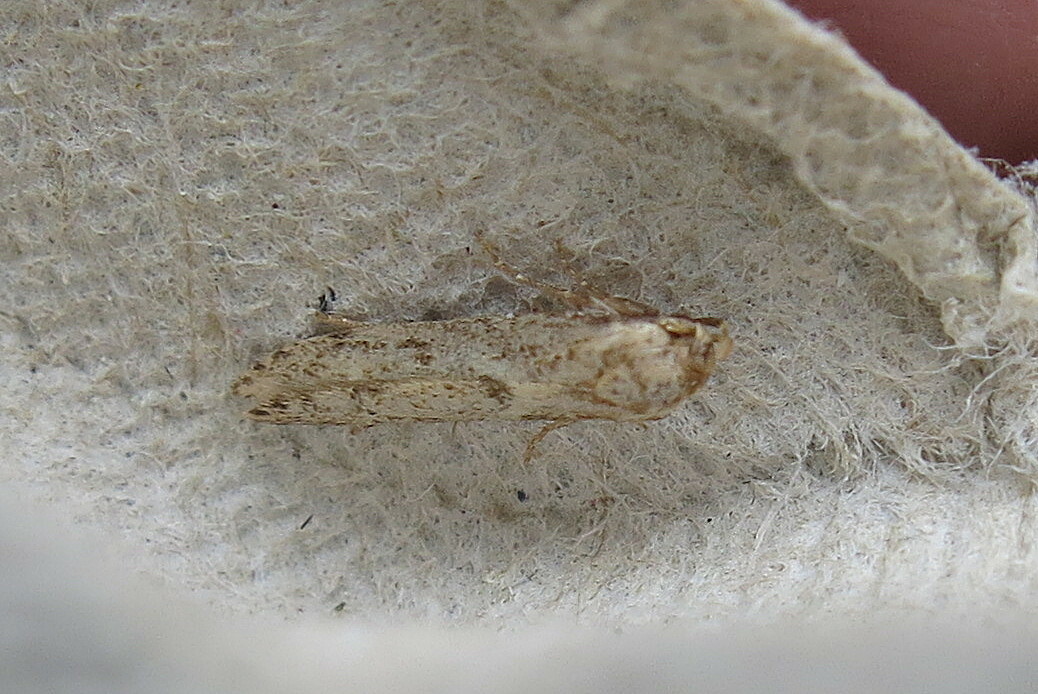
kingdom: Animalia
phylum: Arthropoda
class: Insecta
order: Lepidoptera
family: Blastobasidae
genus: Blastobasis
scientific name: Blastobasis adustella
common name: Dingy dowd
